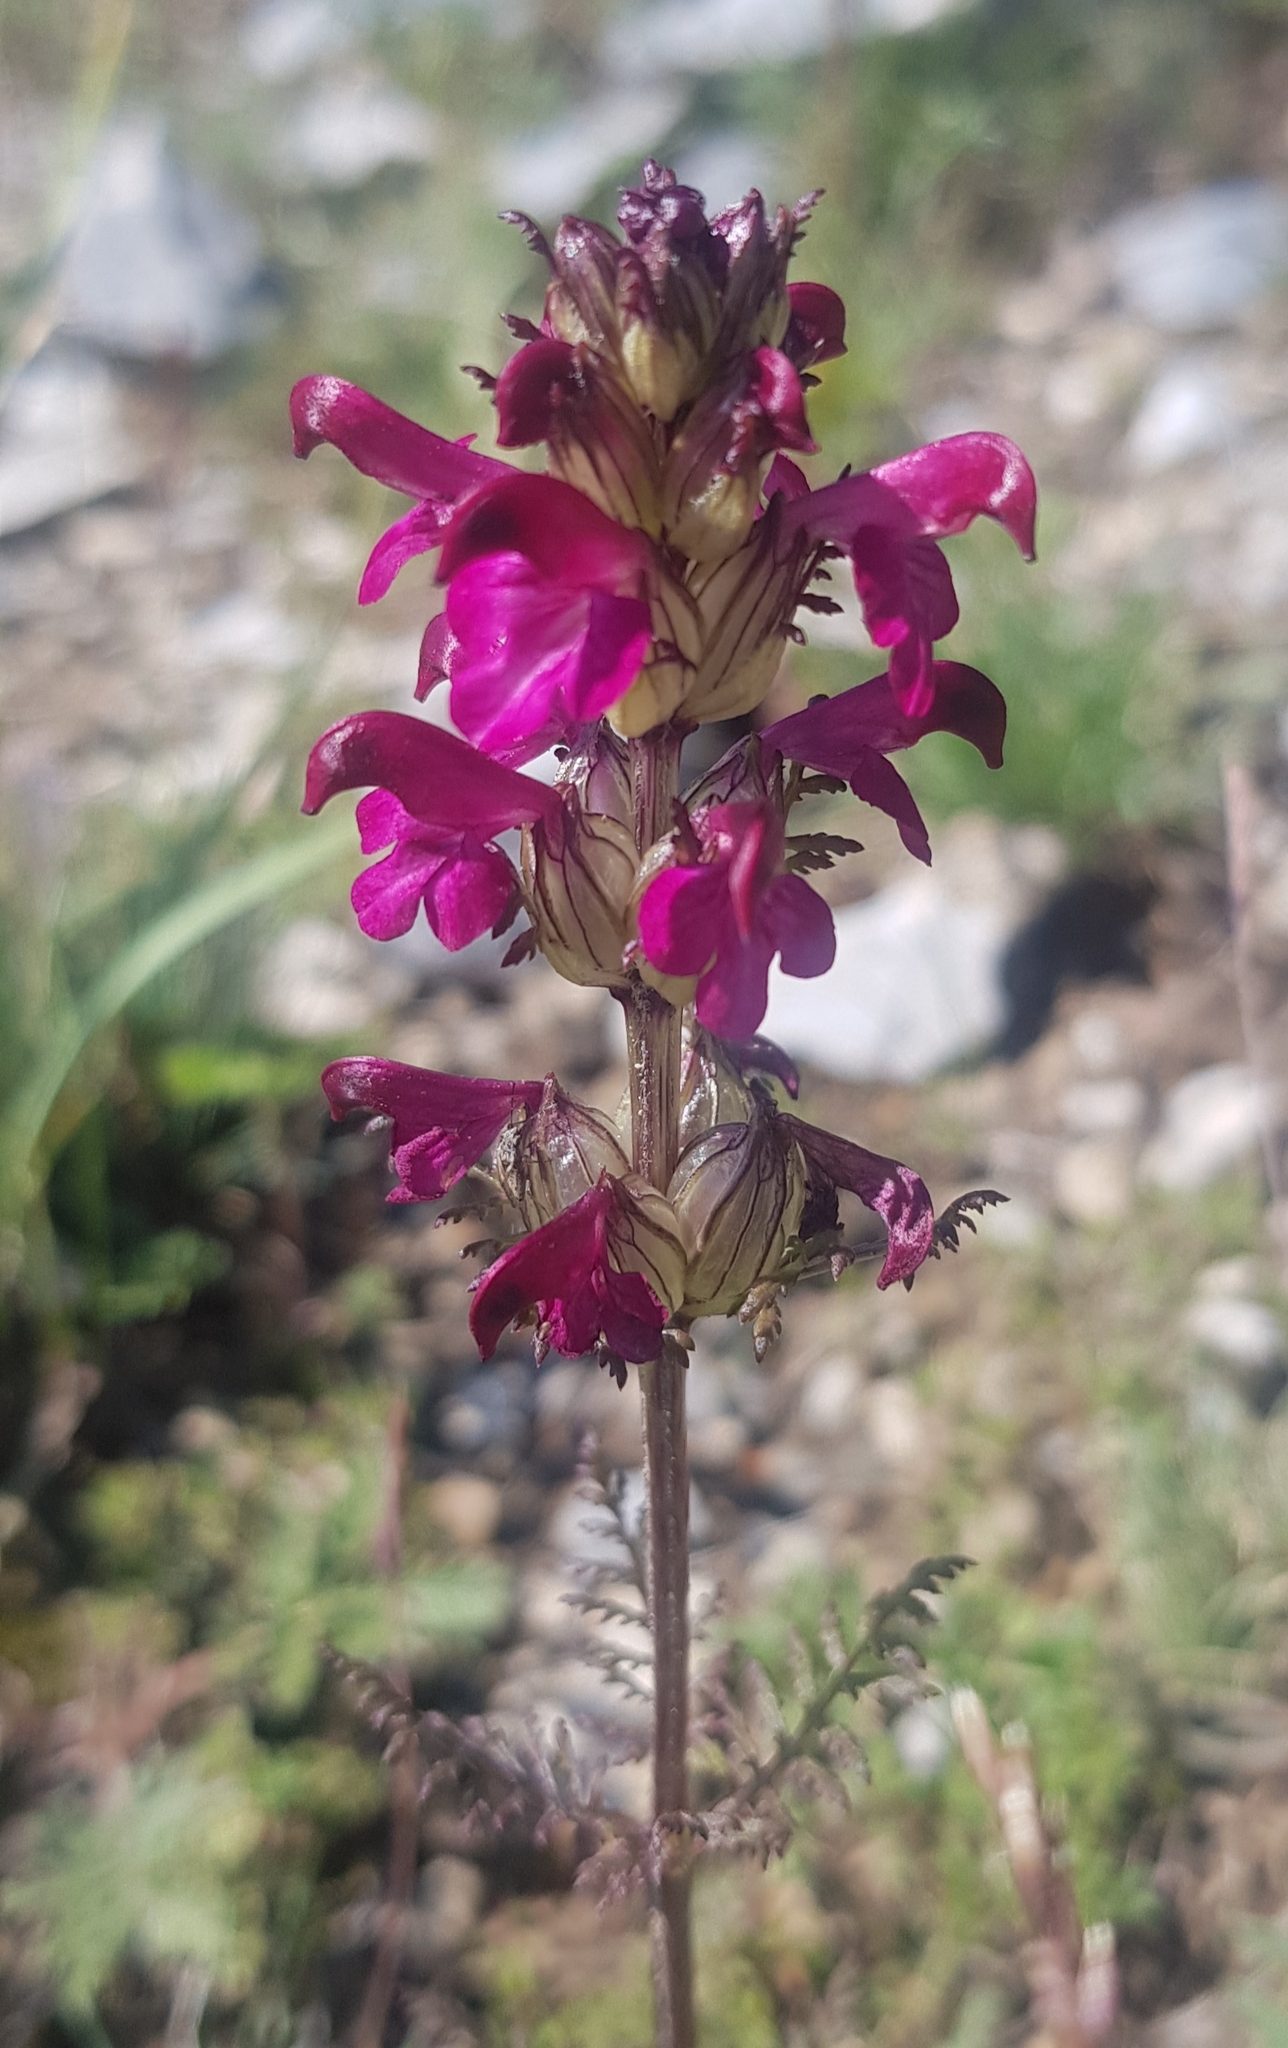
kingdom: Plantae
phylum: Tracheophyta
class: Magnoliopsida
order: Lamiales
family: Orobanchaceae
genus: Pedicularis
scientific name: Pedicularis resupinata
